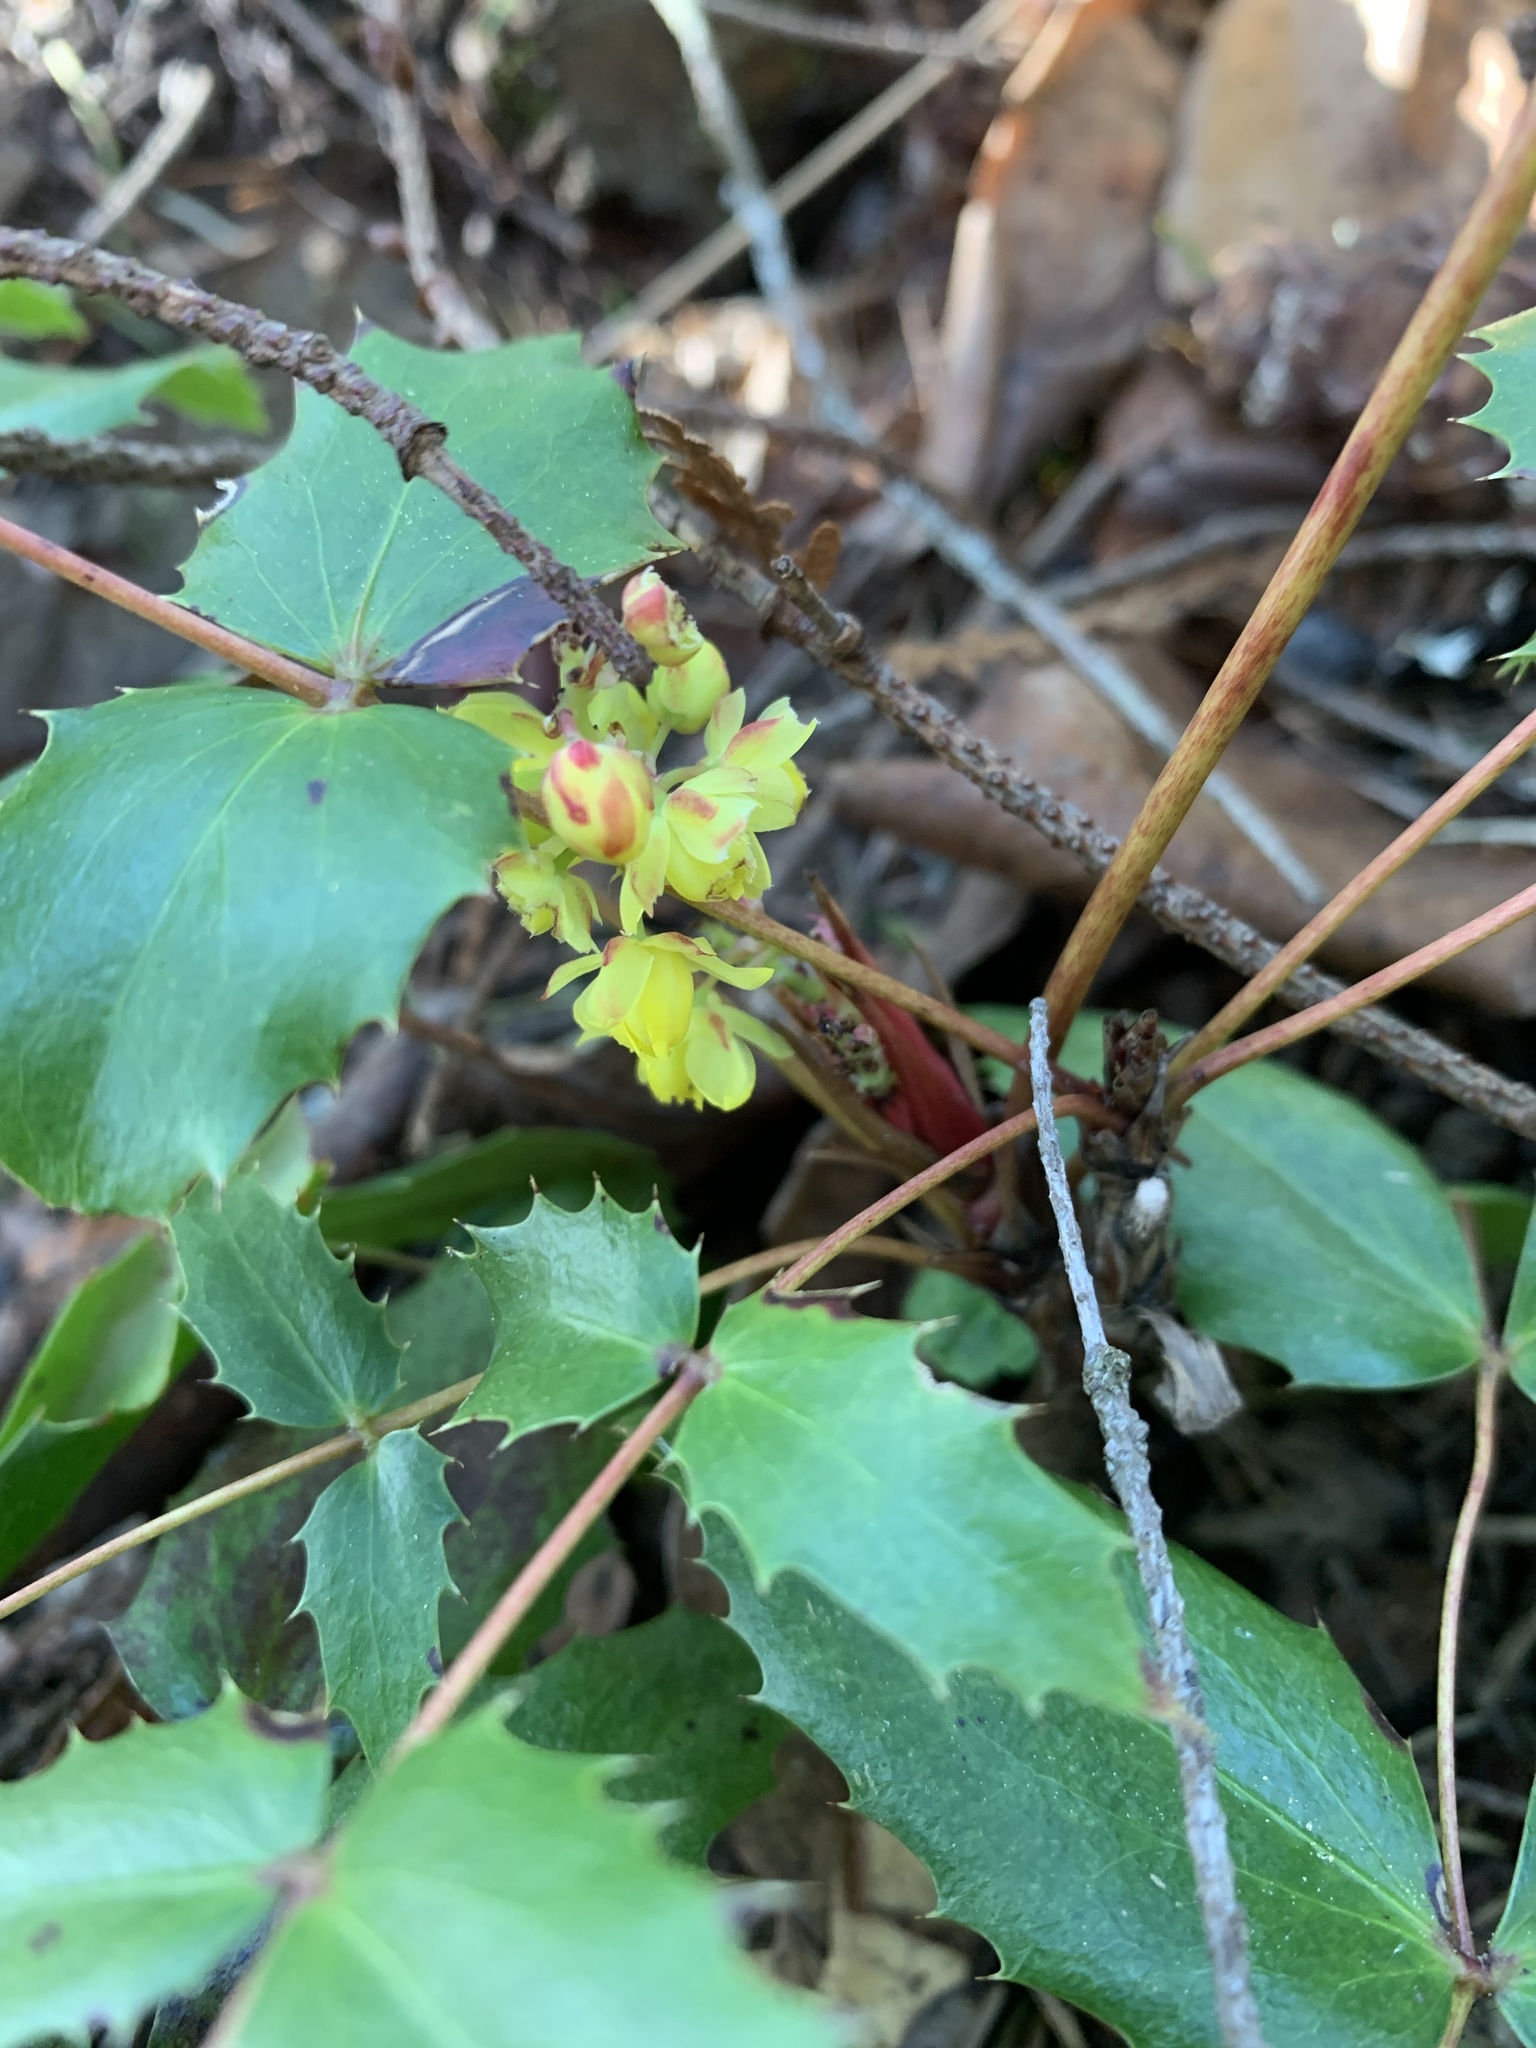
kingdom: Plantae
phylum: Tracheophyta
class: Magnoliopsida
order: Ranunculales
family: Berberidaceae
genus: Mahonia
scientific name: Mahonia nervosa
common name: Cascade oregon-grape
